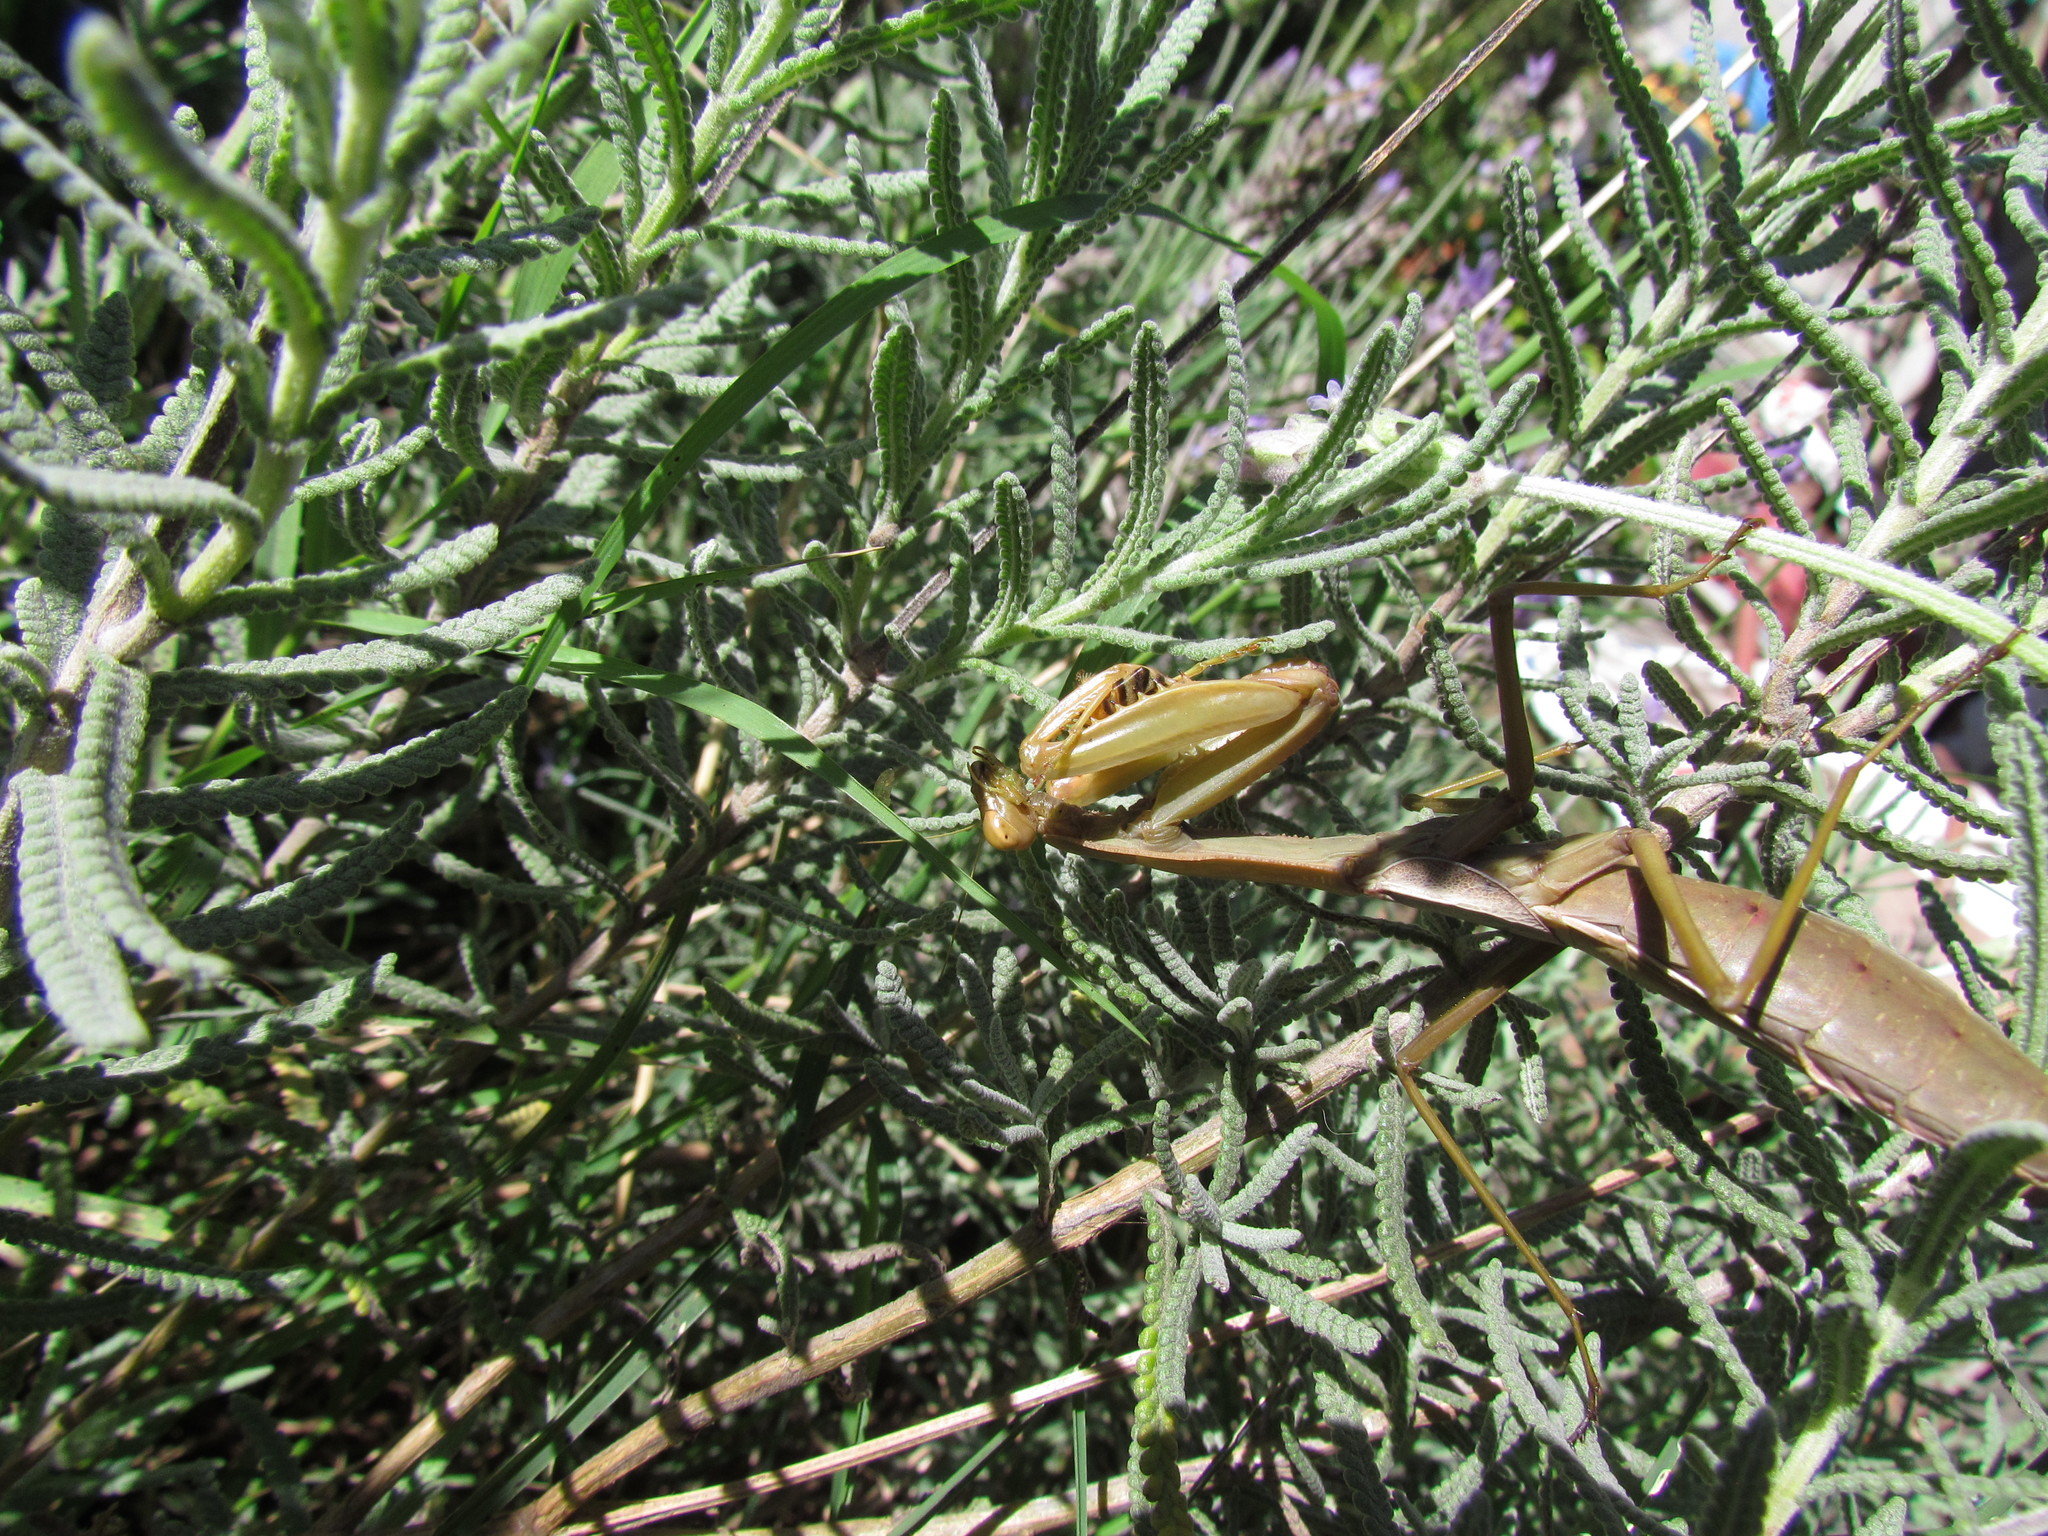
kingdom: Animalia
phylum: Arthropoda
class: Insecta
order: Mantodea
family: Coptopterygidae
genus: Coptopteryx
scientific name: Coptopteryx argentina
